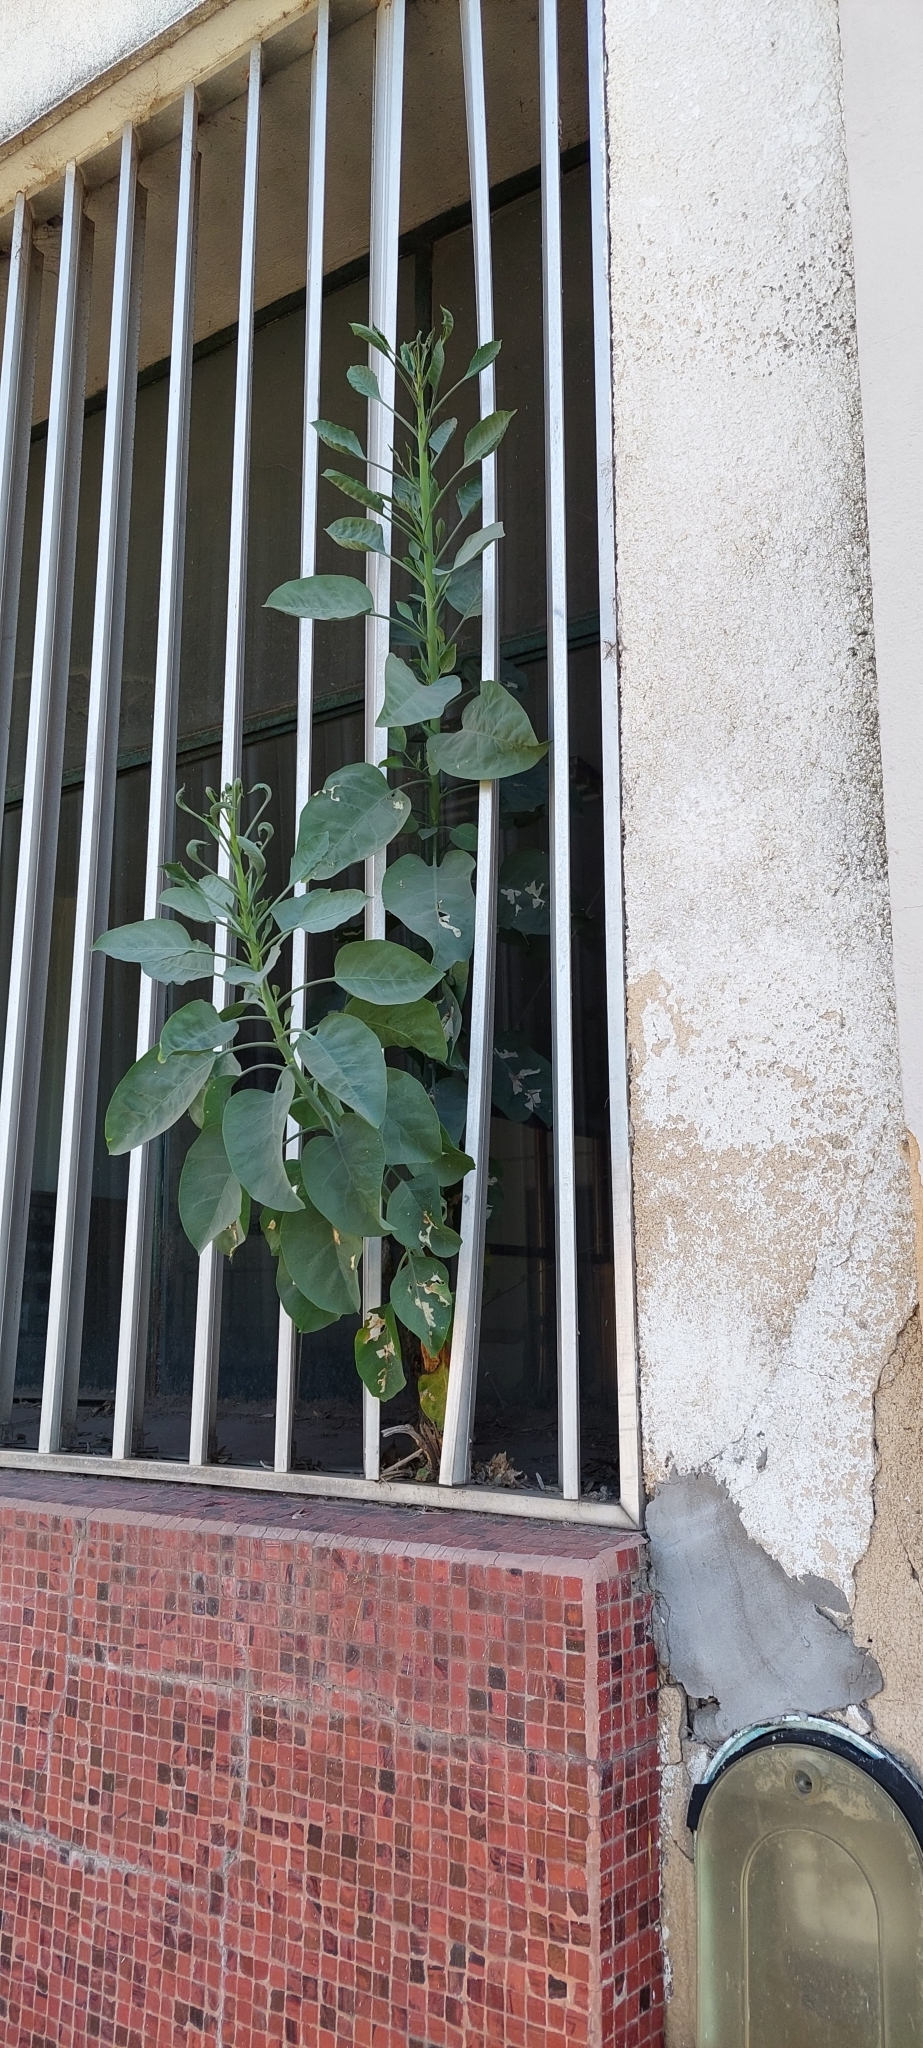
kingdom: Plantae
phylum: Tracheophyta
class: Magnoliopsida
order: Solanales
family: Solanaceae
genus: Nicotiana
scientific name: Nicotiana glauca
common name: Tree tobacco
